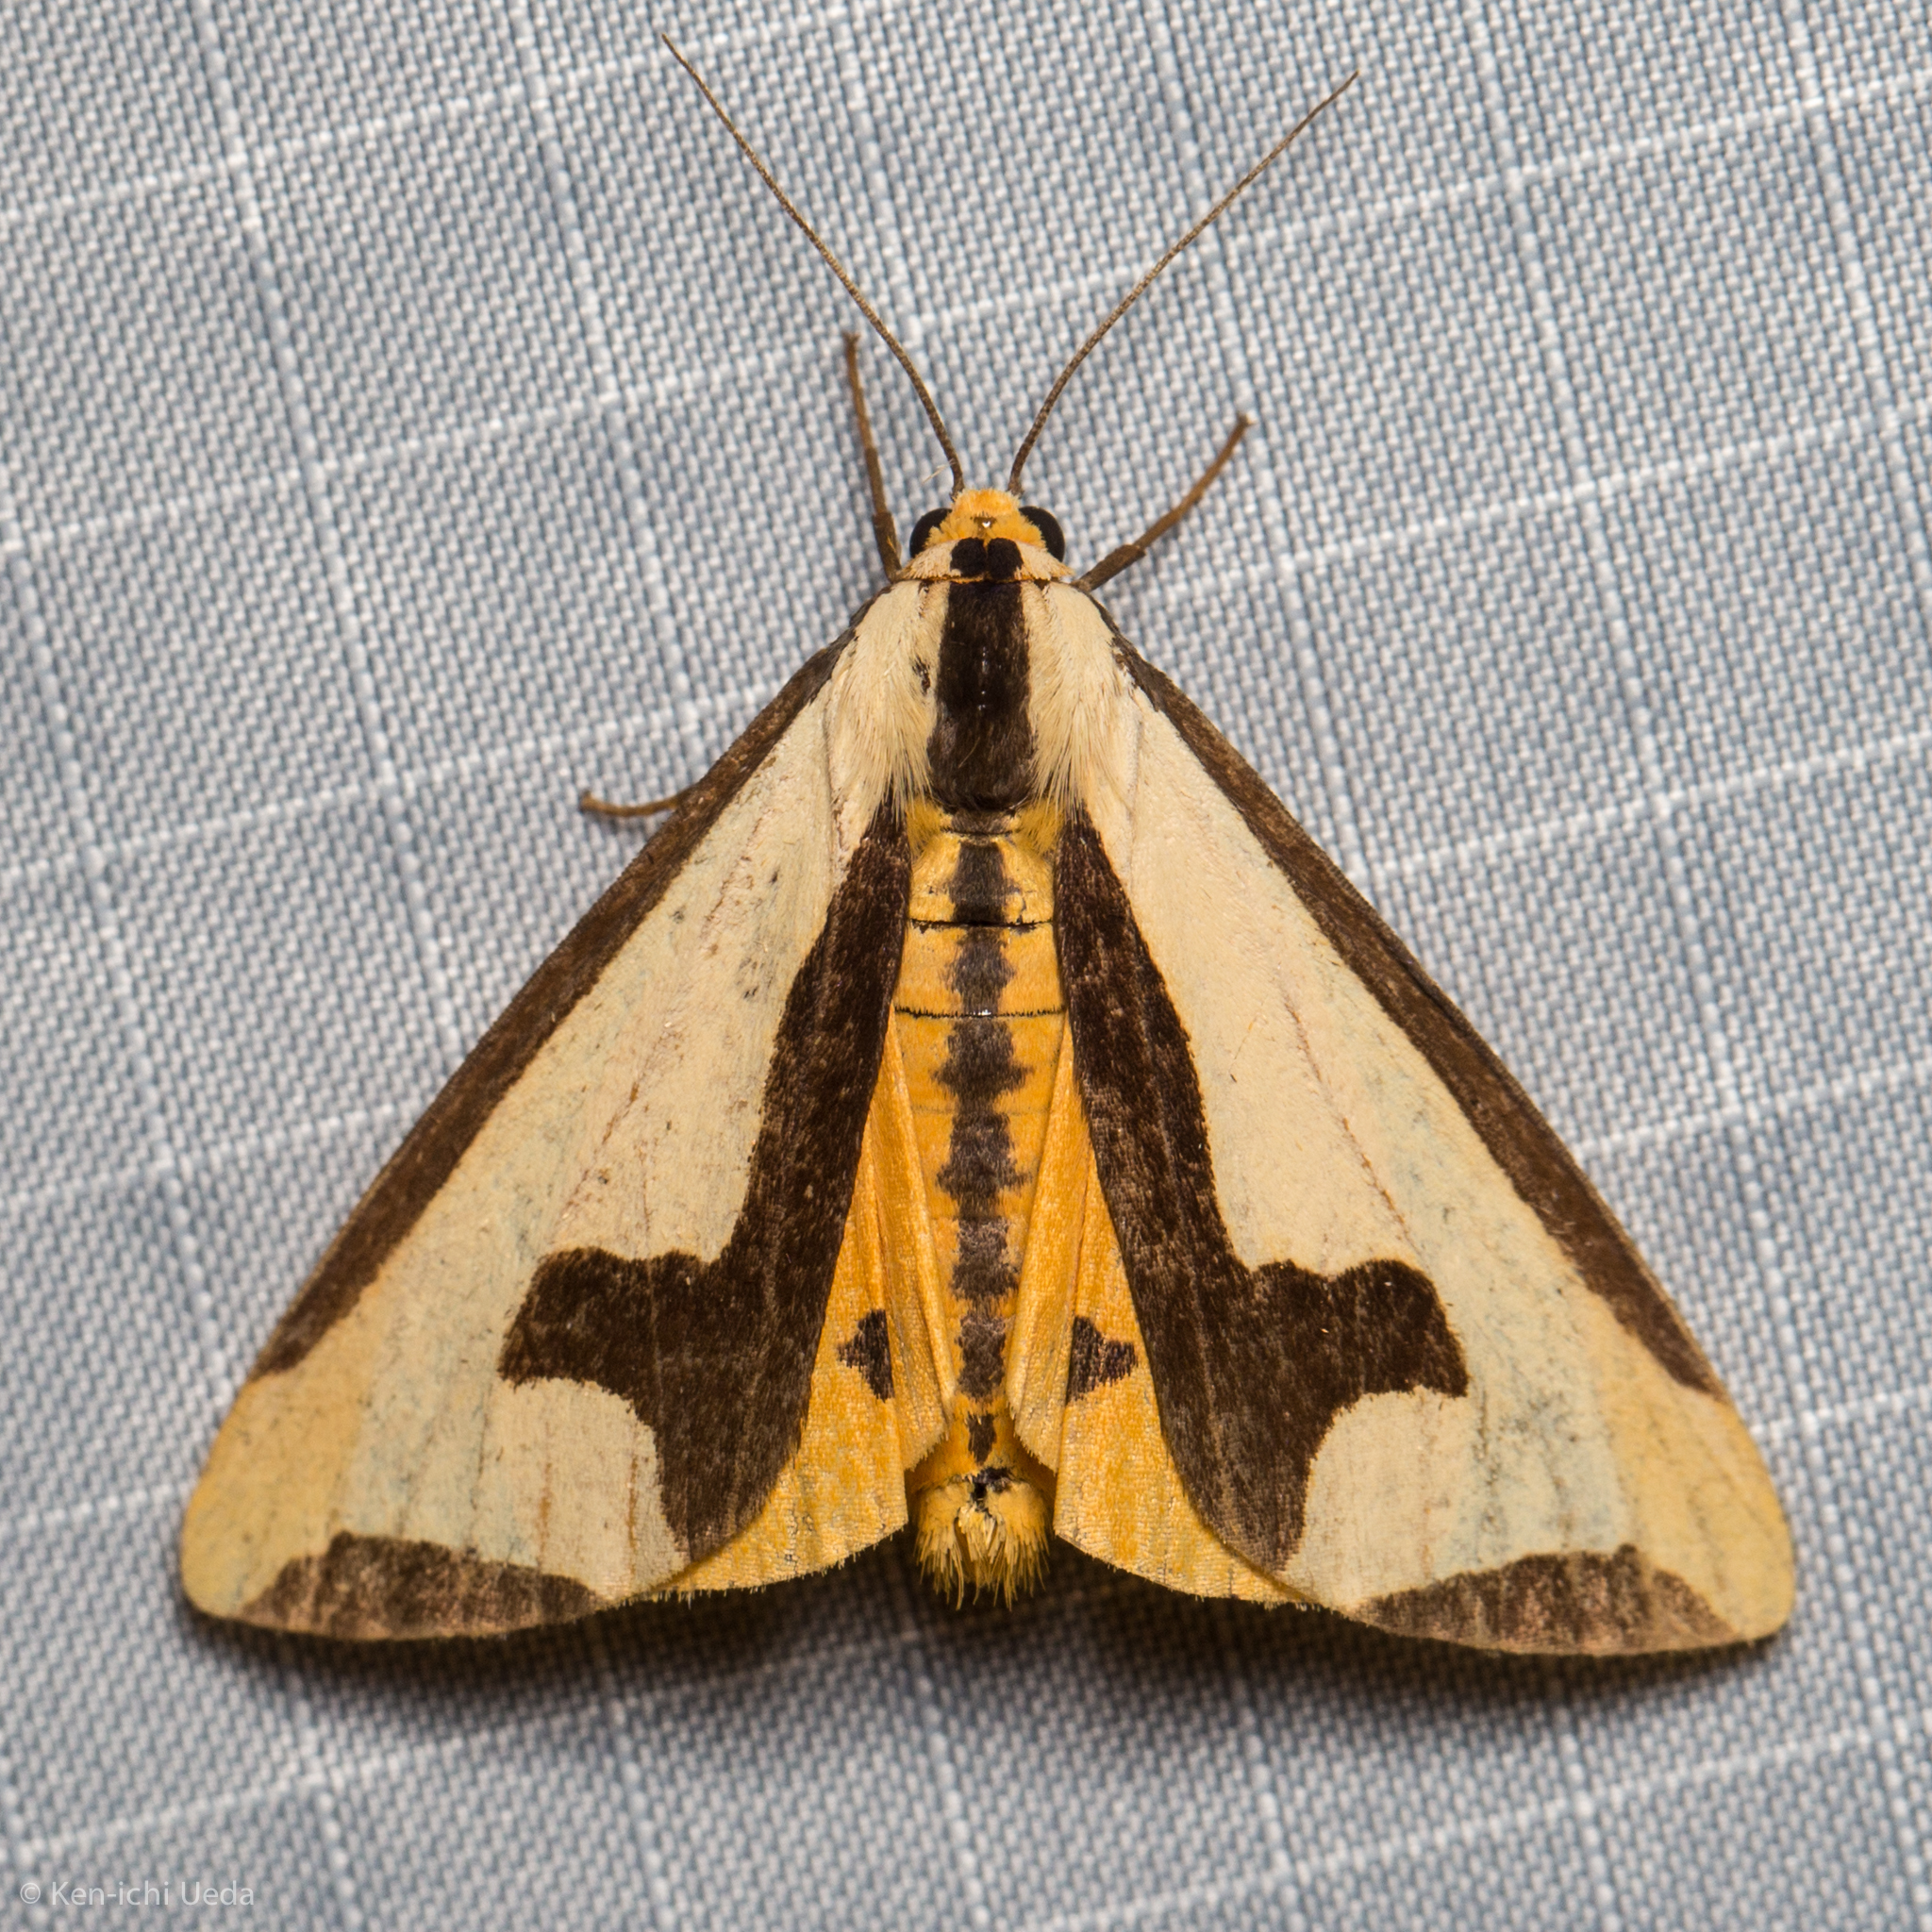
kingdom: Animalia
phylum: Arthropoda
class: Insecta
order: Lepidoptera
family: Erebidae
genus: Haploa
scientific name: Haploa clymene
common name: Clymene moth
